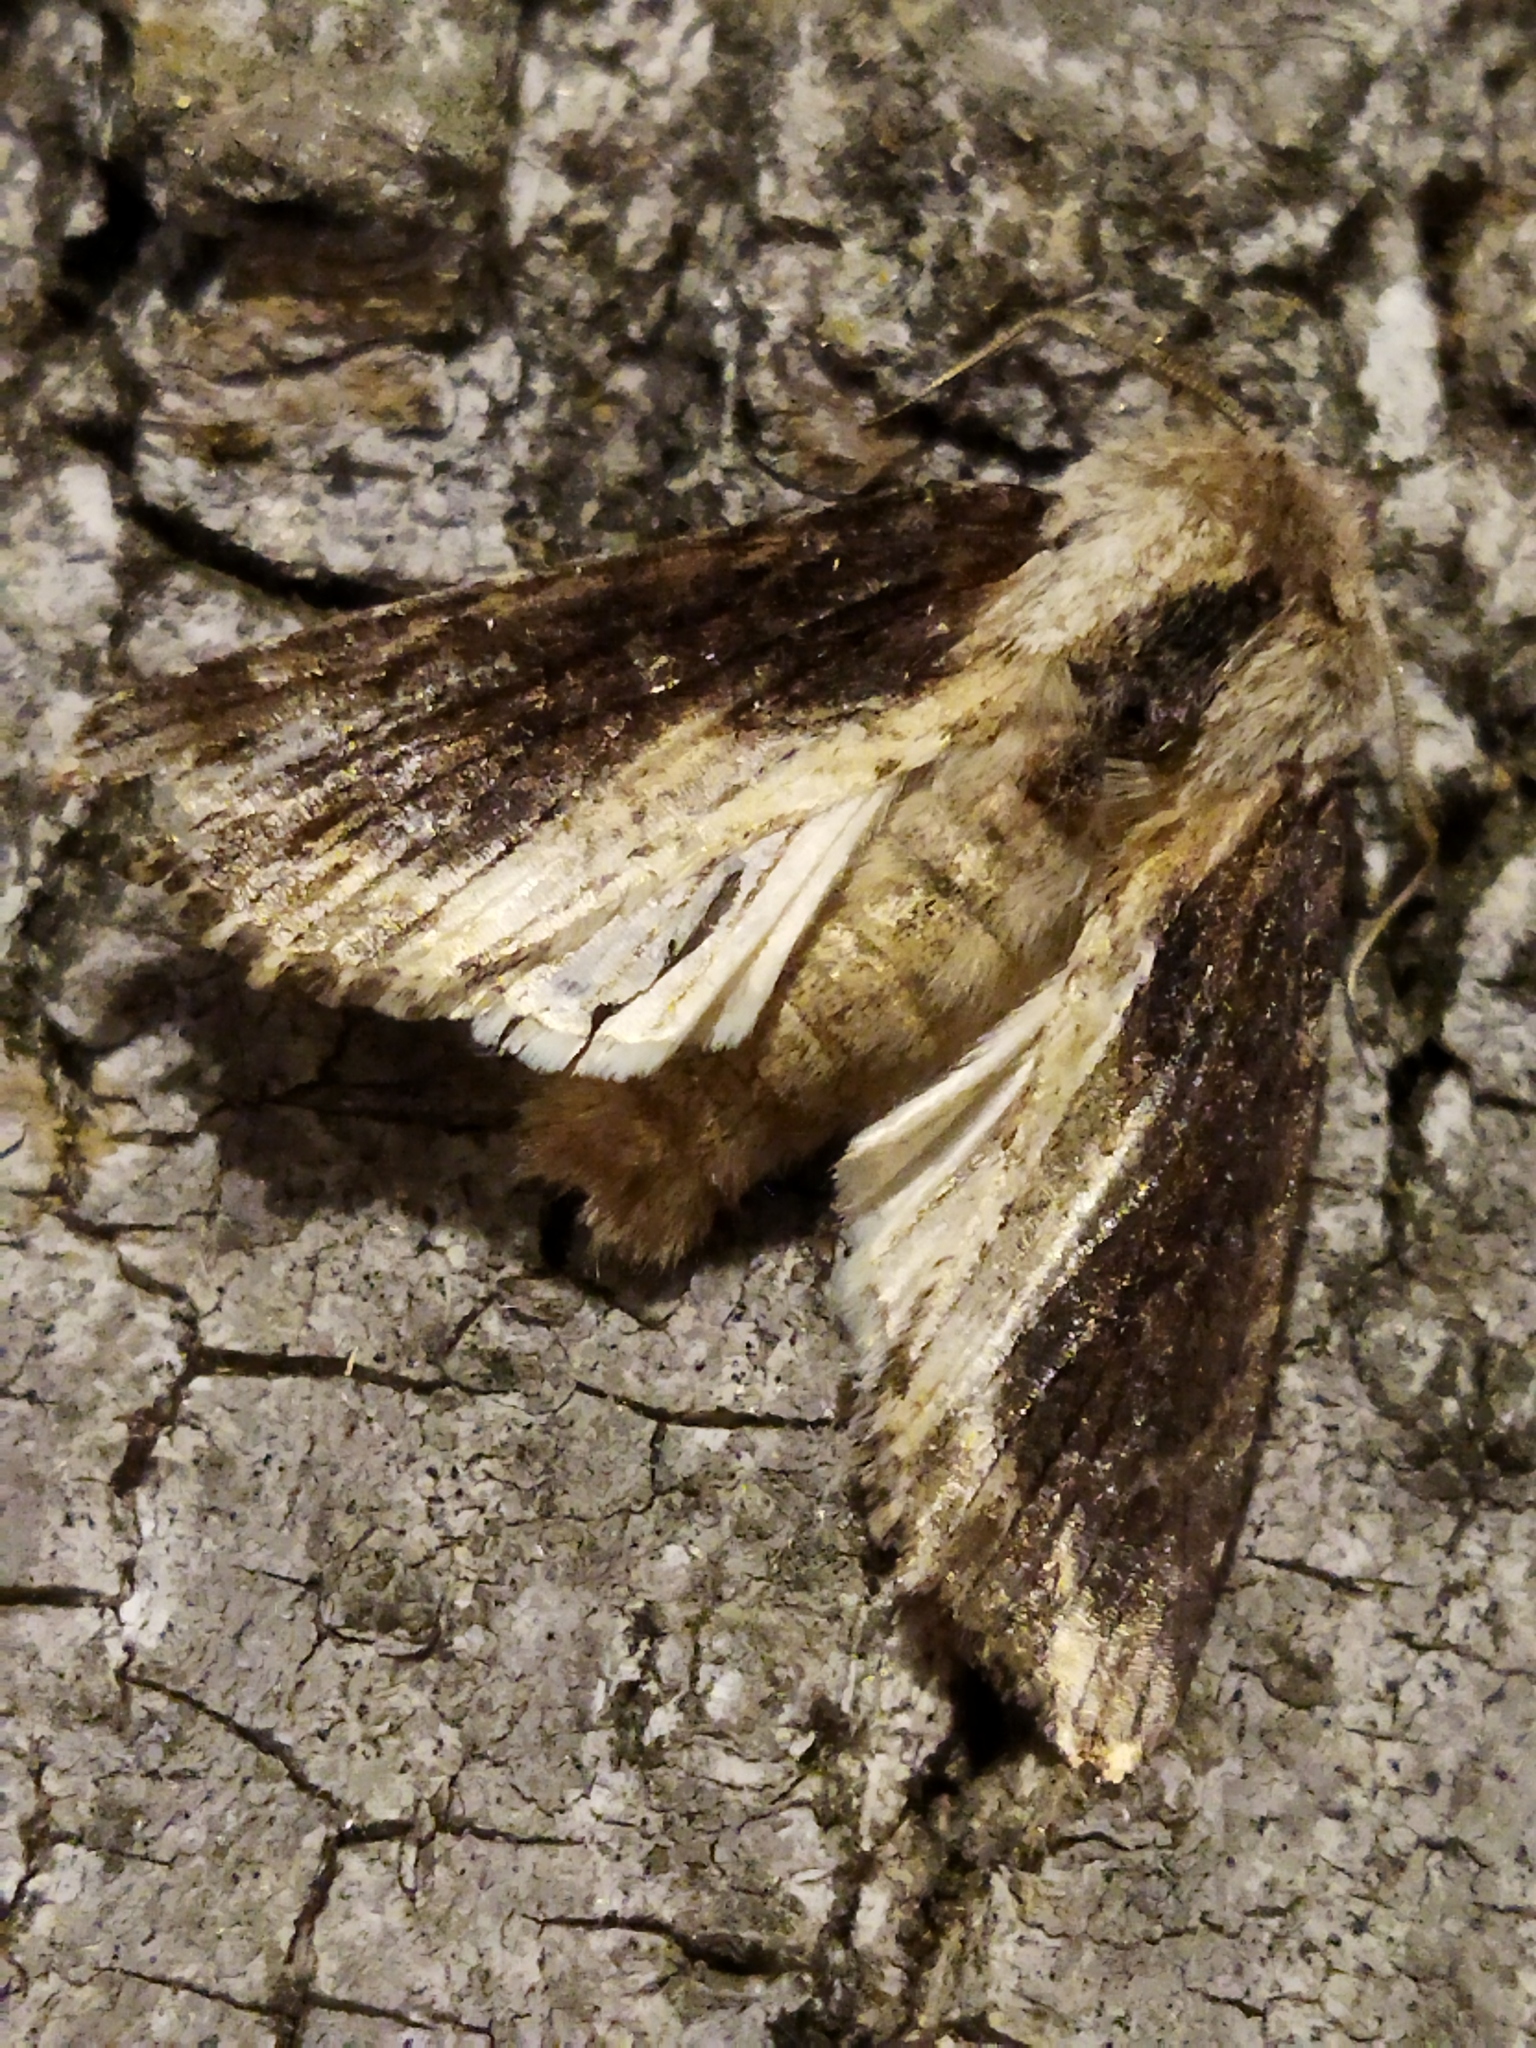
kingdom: Animalia
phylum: Arthropoda
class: Insecta
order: Lepidoptera
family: Noctuidae
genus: Egira
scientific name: Egira conspicillaris
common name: Silver cloud
